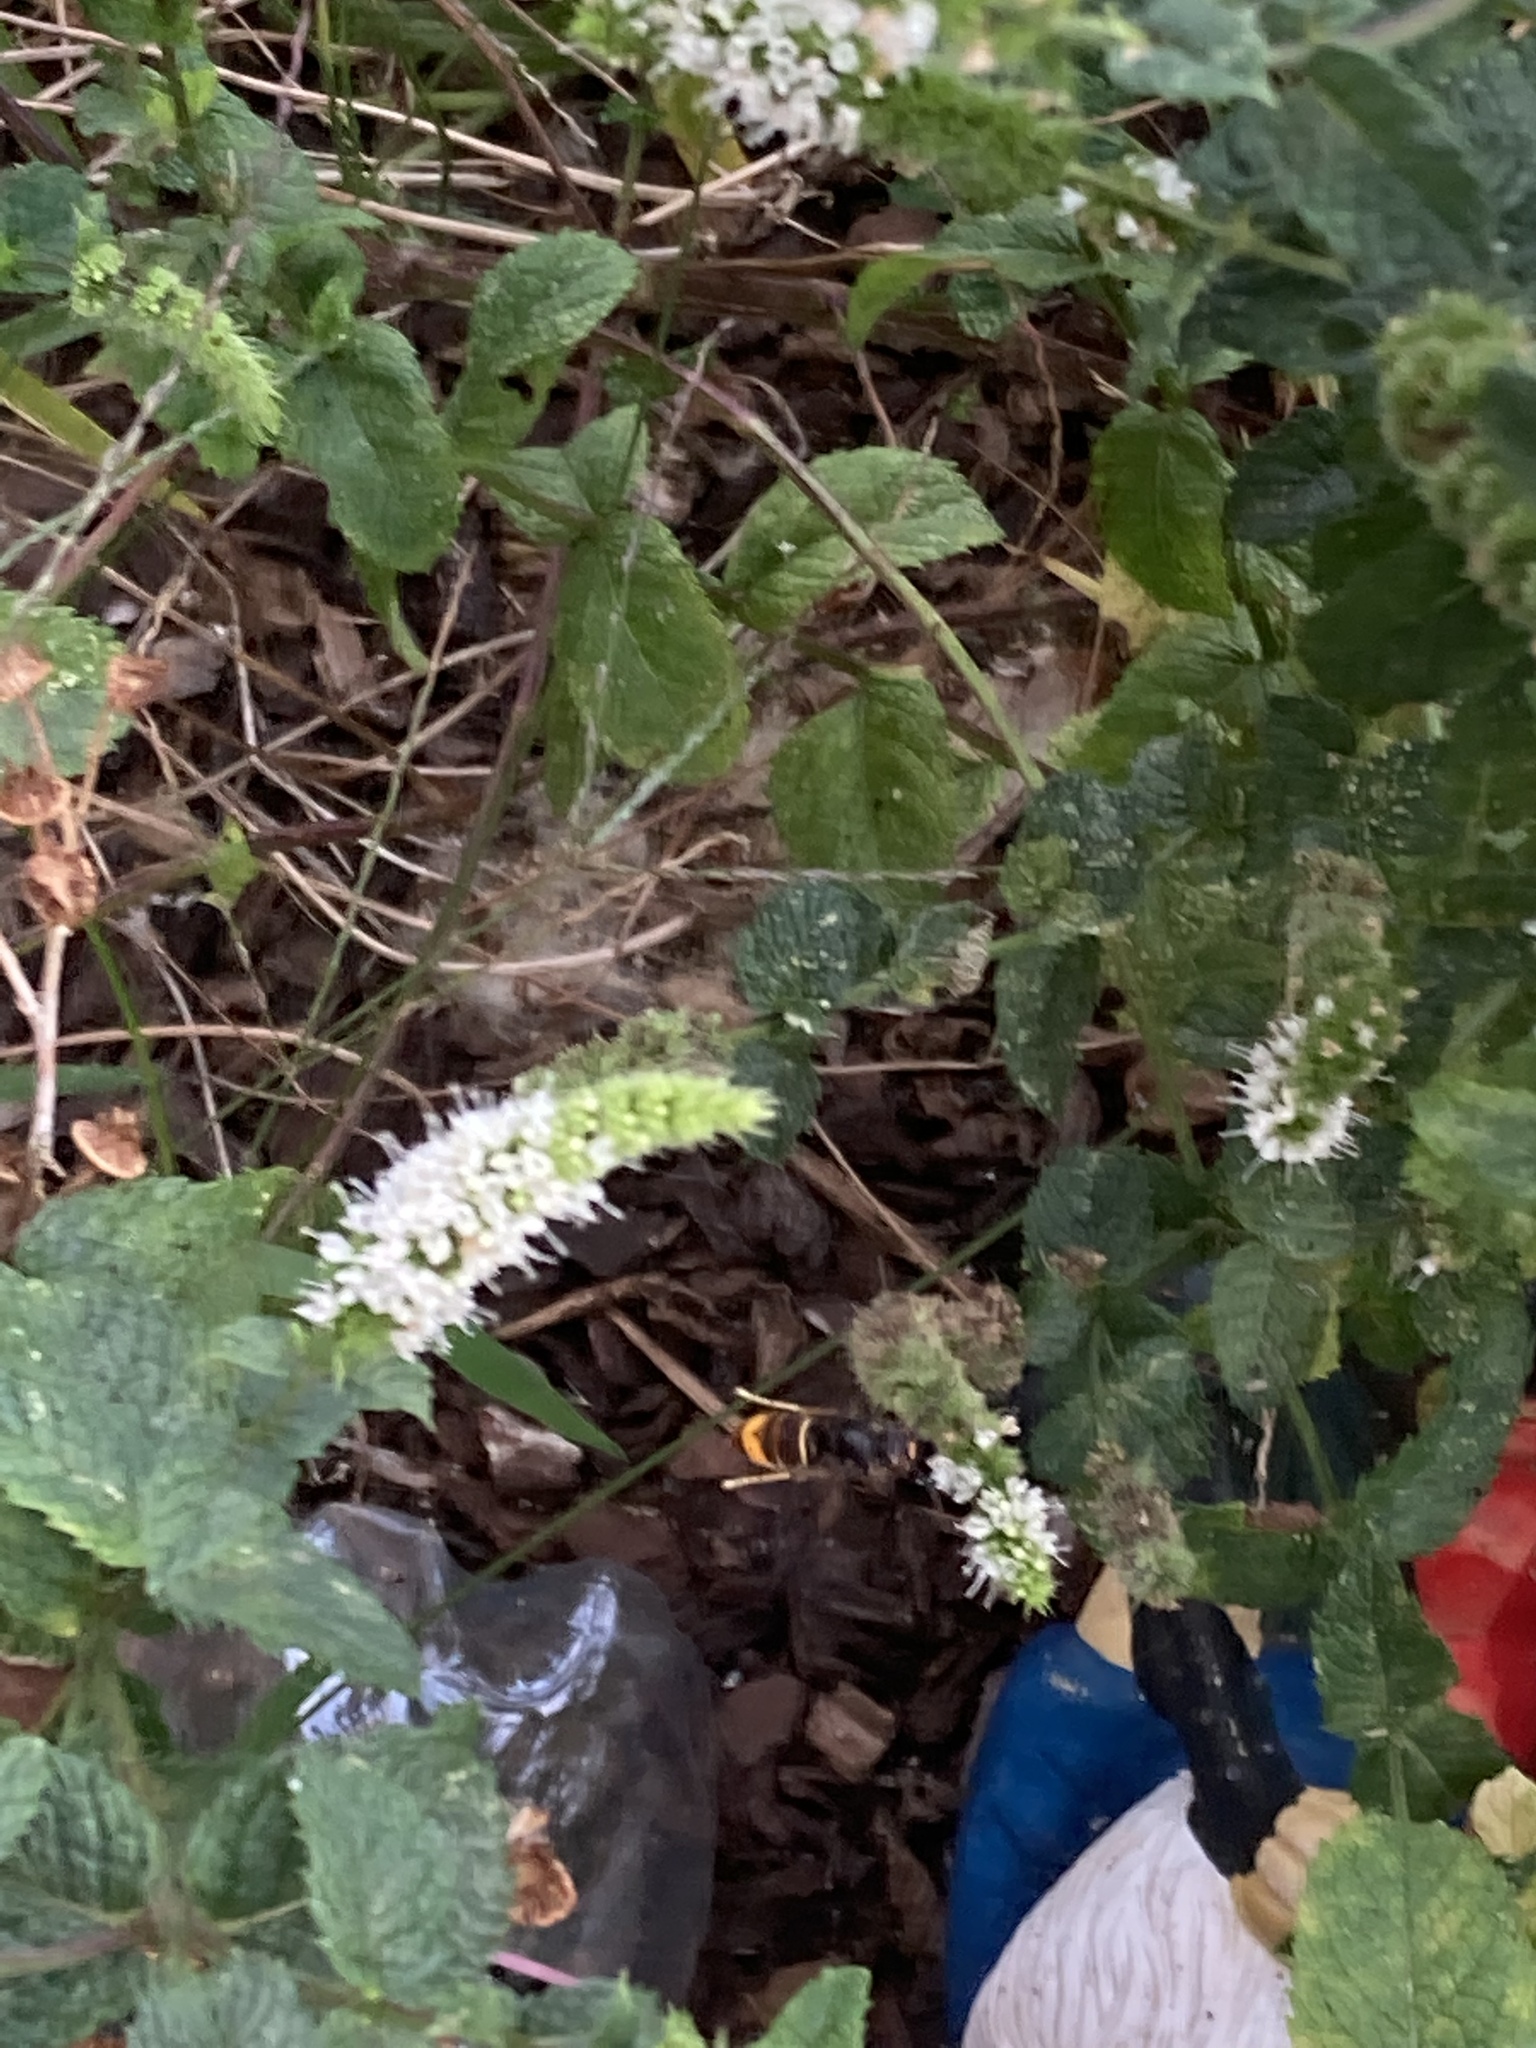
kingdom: Animalia
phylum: Arthropoda
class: Insecta
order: Hymenoptera
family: Vespidae
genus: Vespa
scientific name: Vespa velutina
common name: Asian hornet
